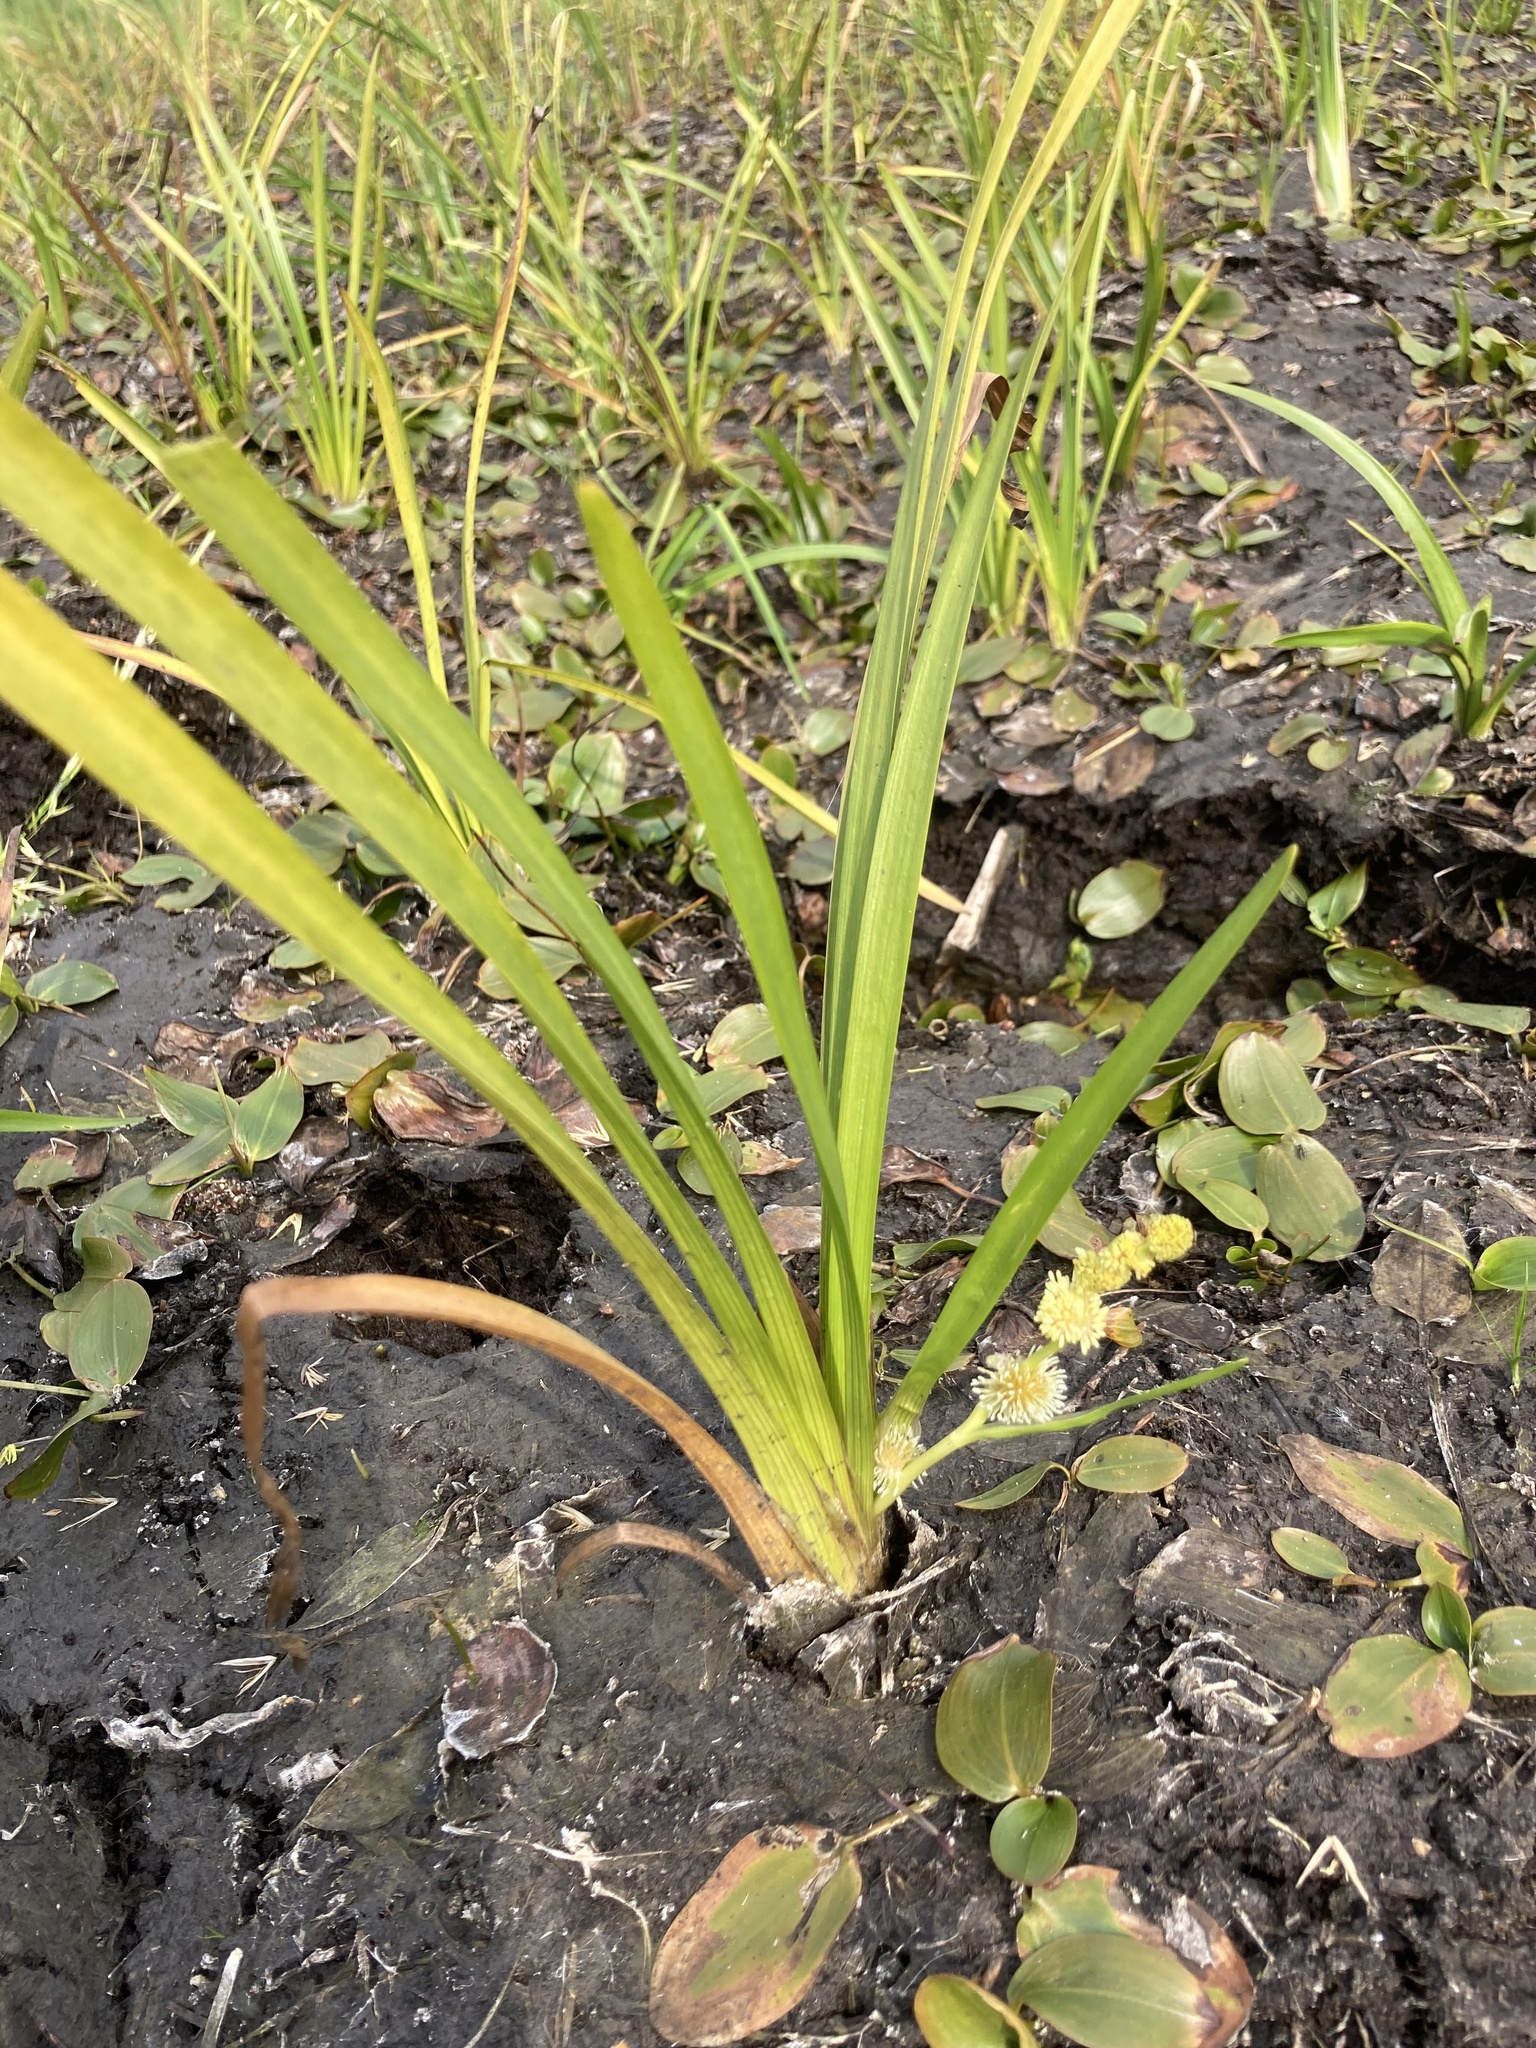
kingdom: Plantae
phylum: Tracheophyta
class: Liliopsida
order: Poales
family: Typhaceae
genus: Sparganium
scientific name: Sparganium emersum
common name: Unbranched bur-reed
